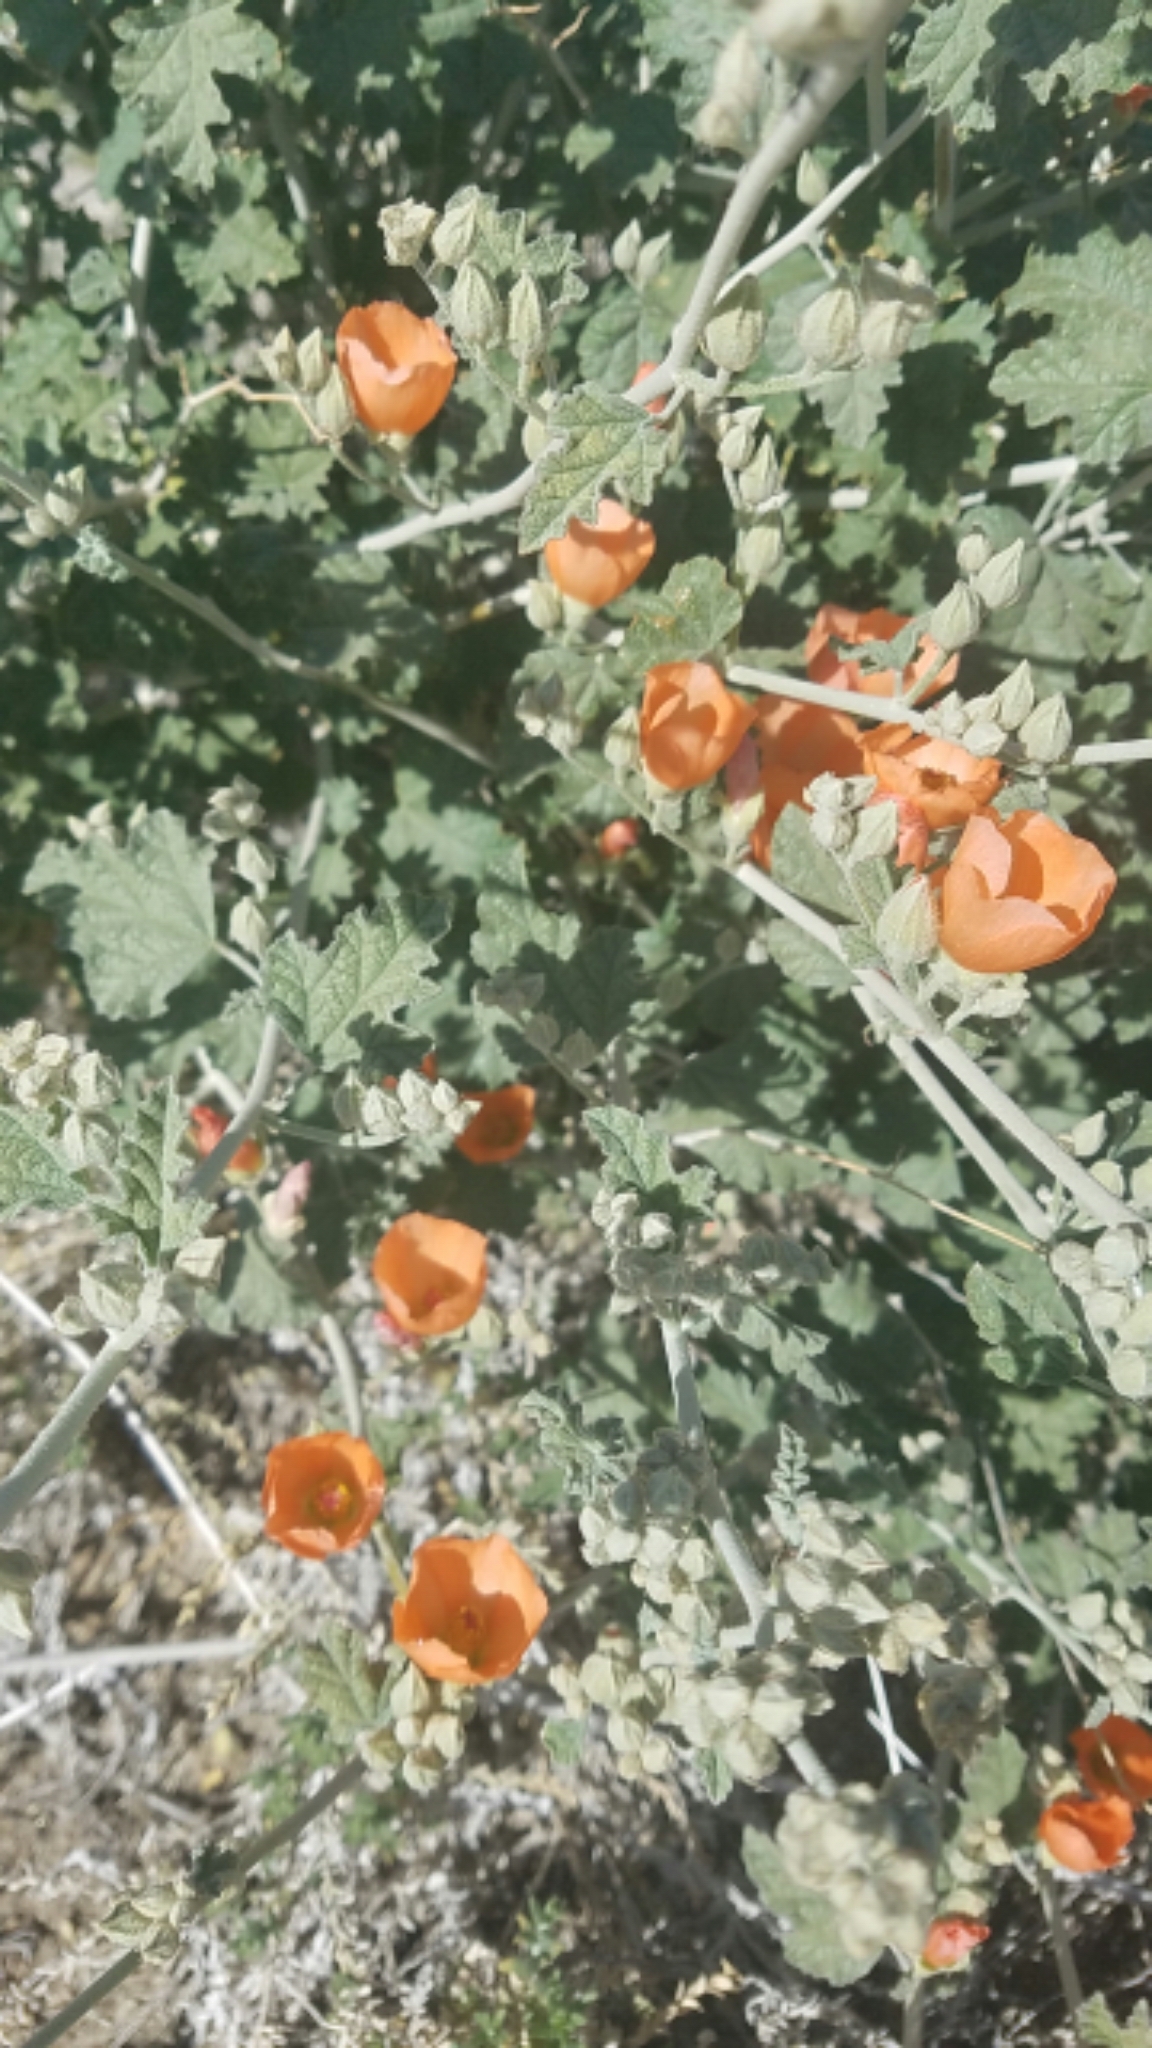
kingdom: Plantae
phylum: Tracheophyta
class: Magnoliopsida
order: Malvales
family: Malvaceae
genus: Sphaeralcea
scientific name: Sphaeralcea ambigua
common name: Apricot globe-mallow
